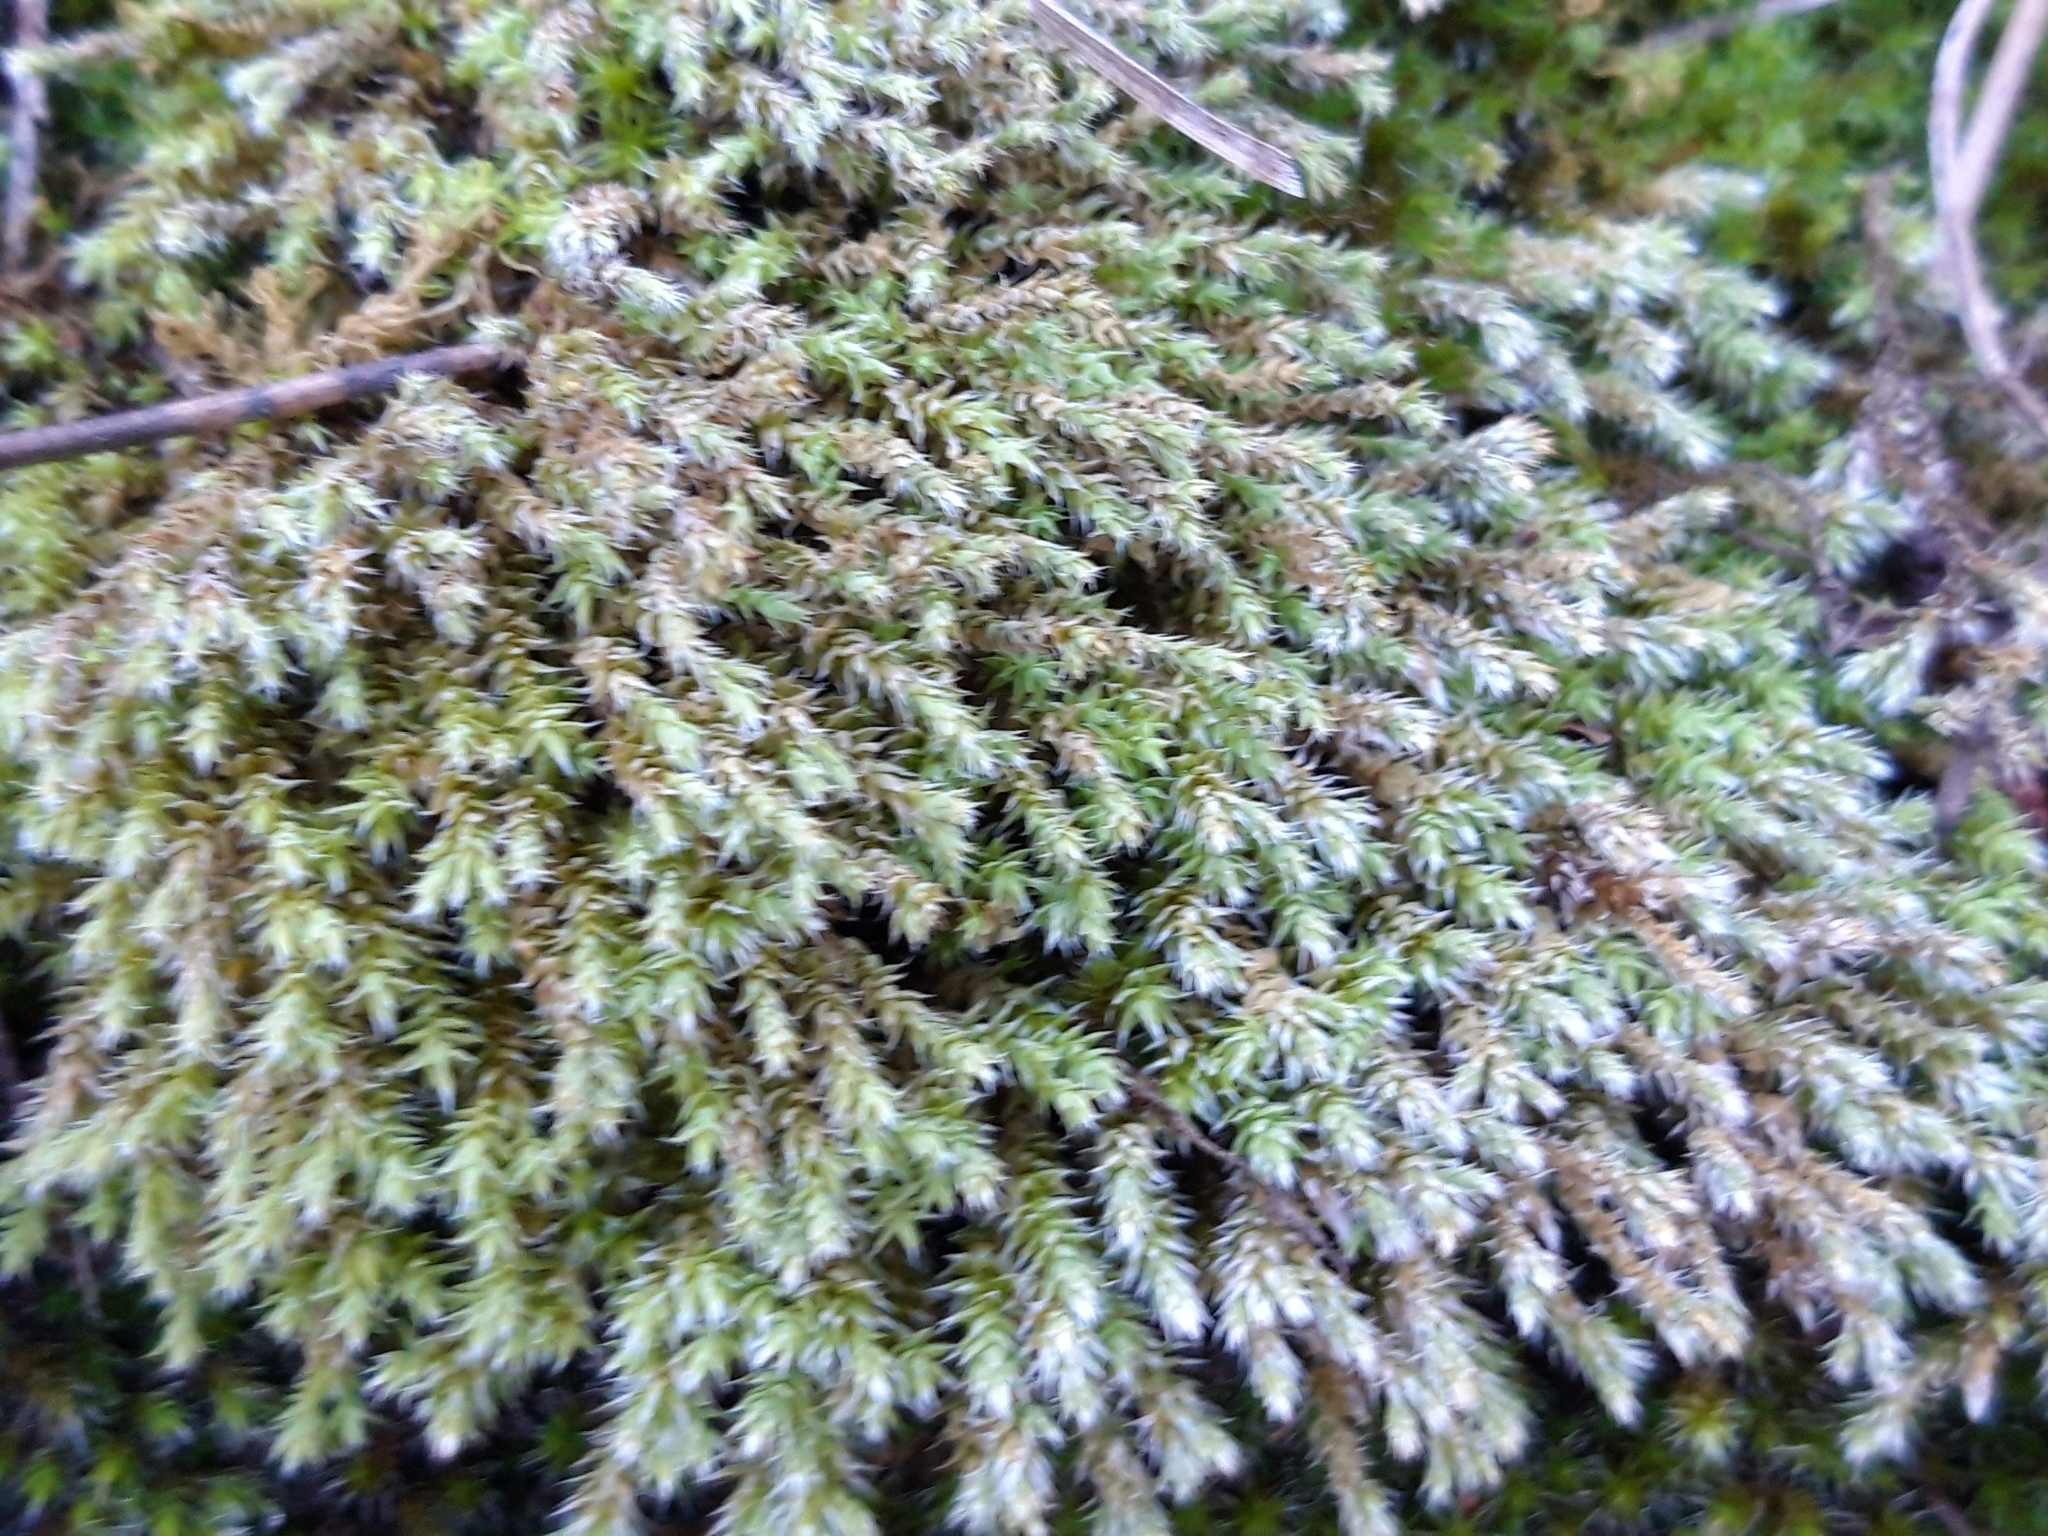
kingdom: Plantae
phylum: Bryophyta
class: Bryopsida
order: Hedwigiales
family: Hedwigiaceae
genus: Hedwigia
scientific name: Hedwigia ciliata
